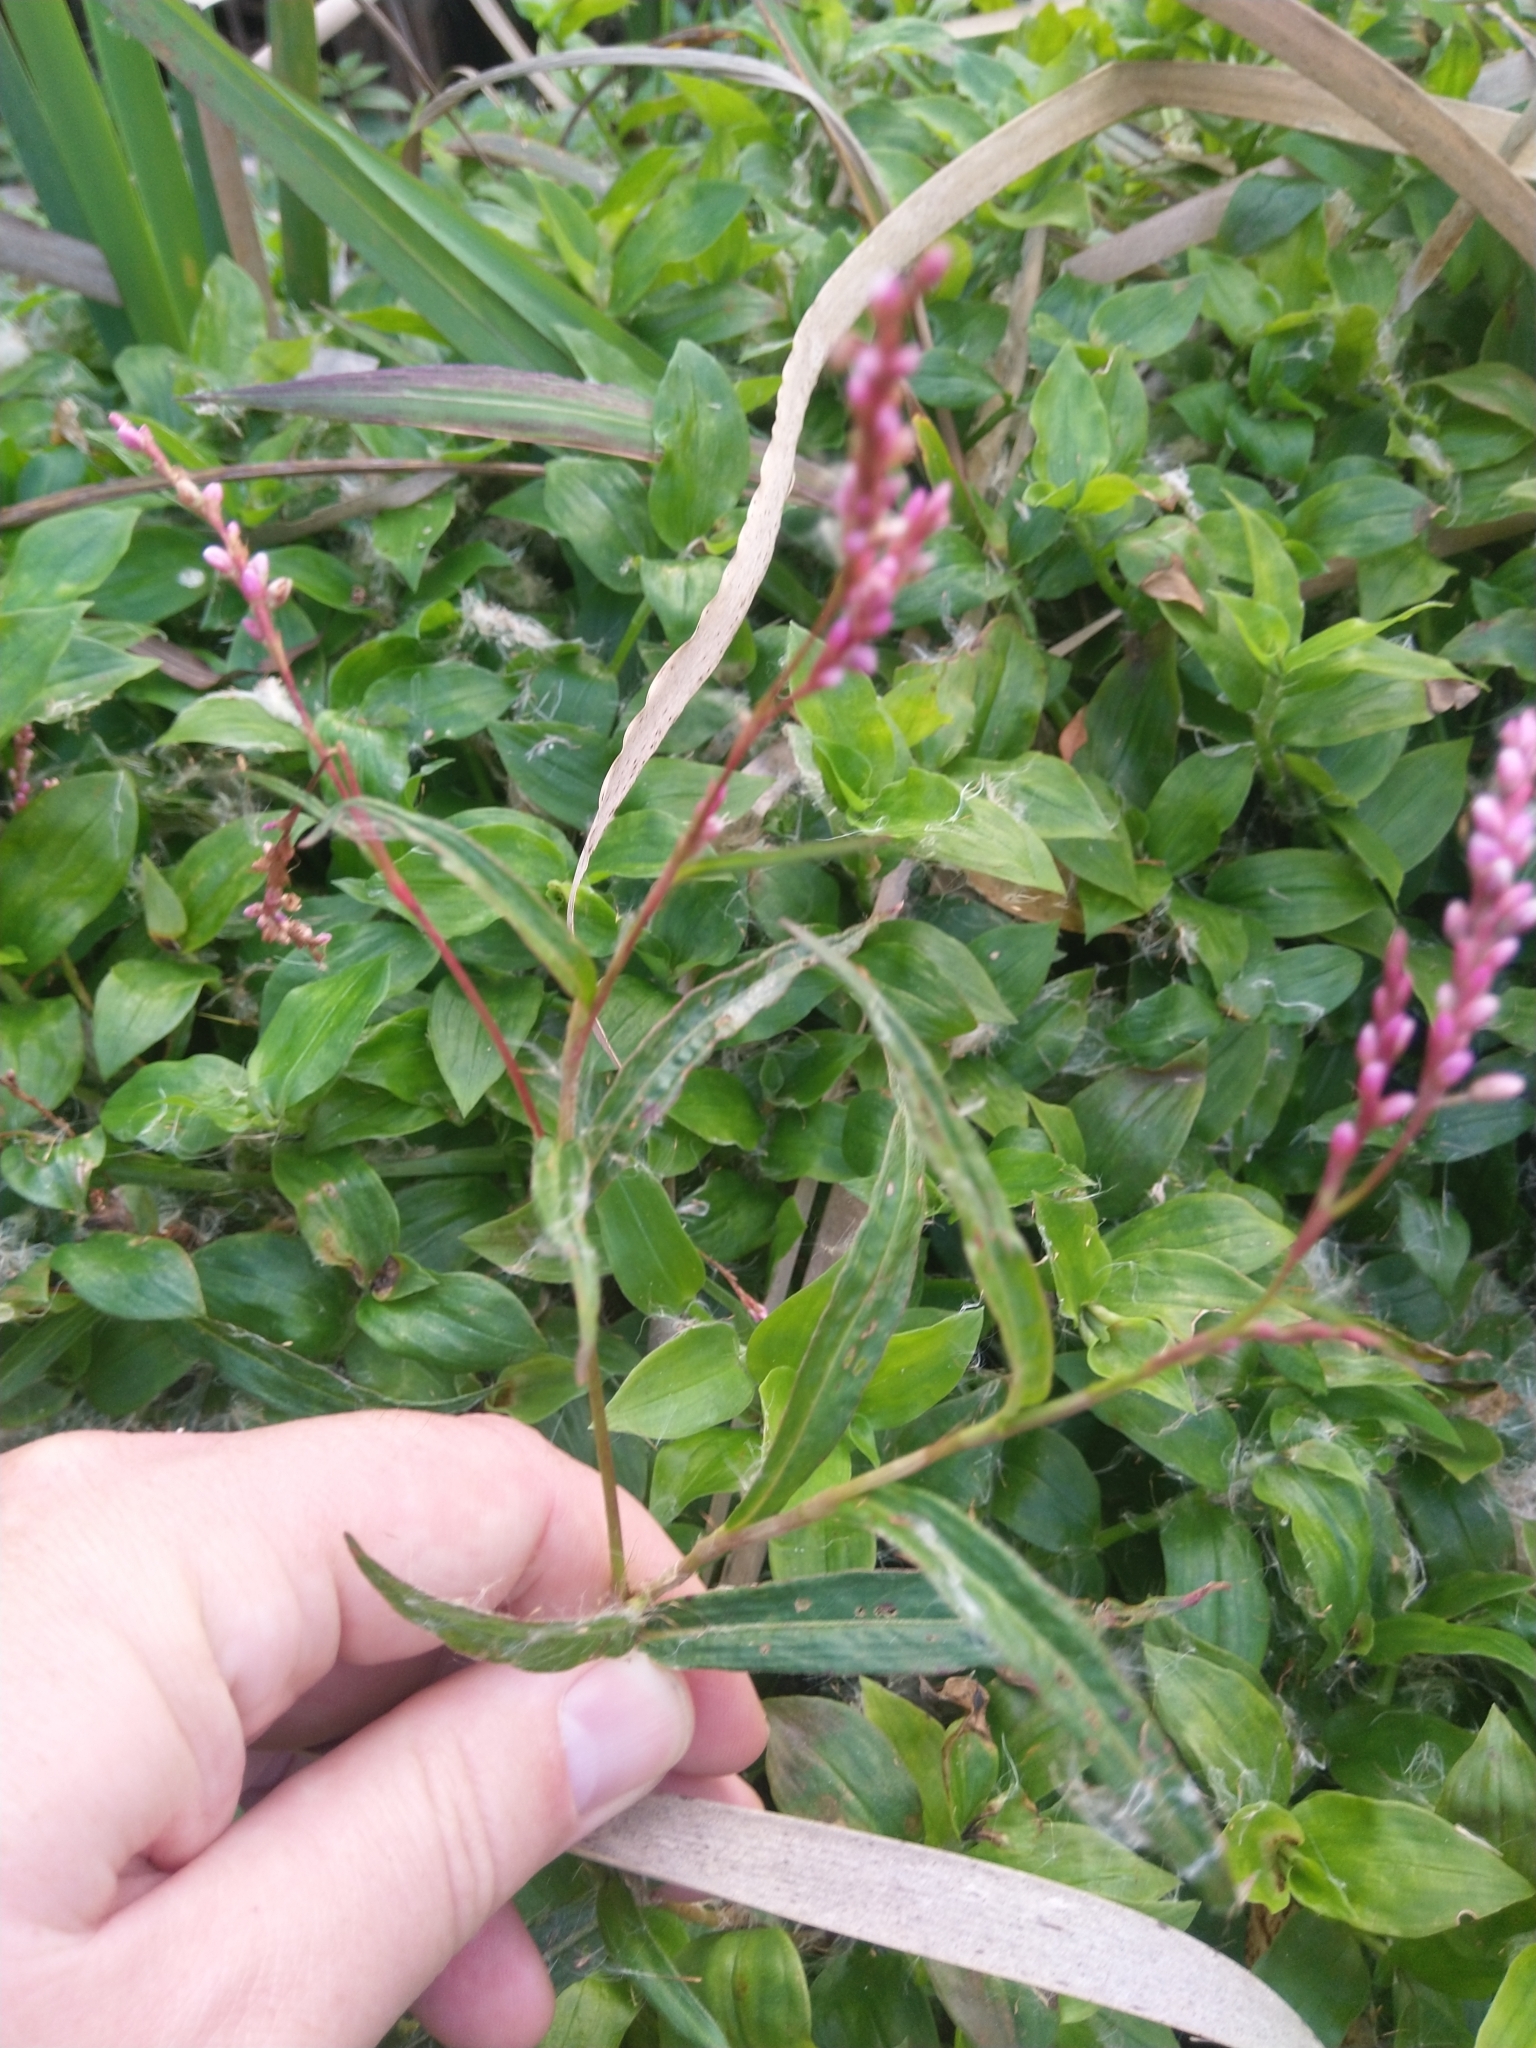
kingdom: Plantae
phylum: Tracheophyta
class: Magnoliopsida
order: Caryophyllales
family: Polygonaceae
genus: Persicaria
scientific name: Persicaria decipiens
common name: Willow-weed
